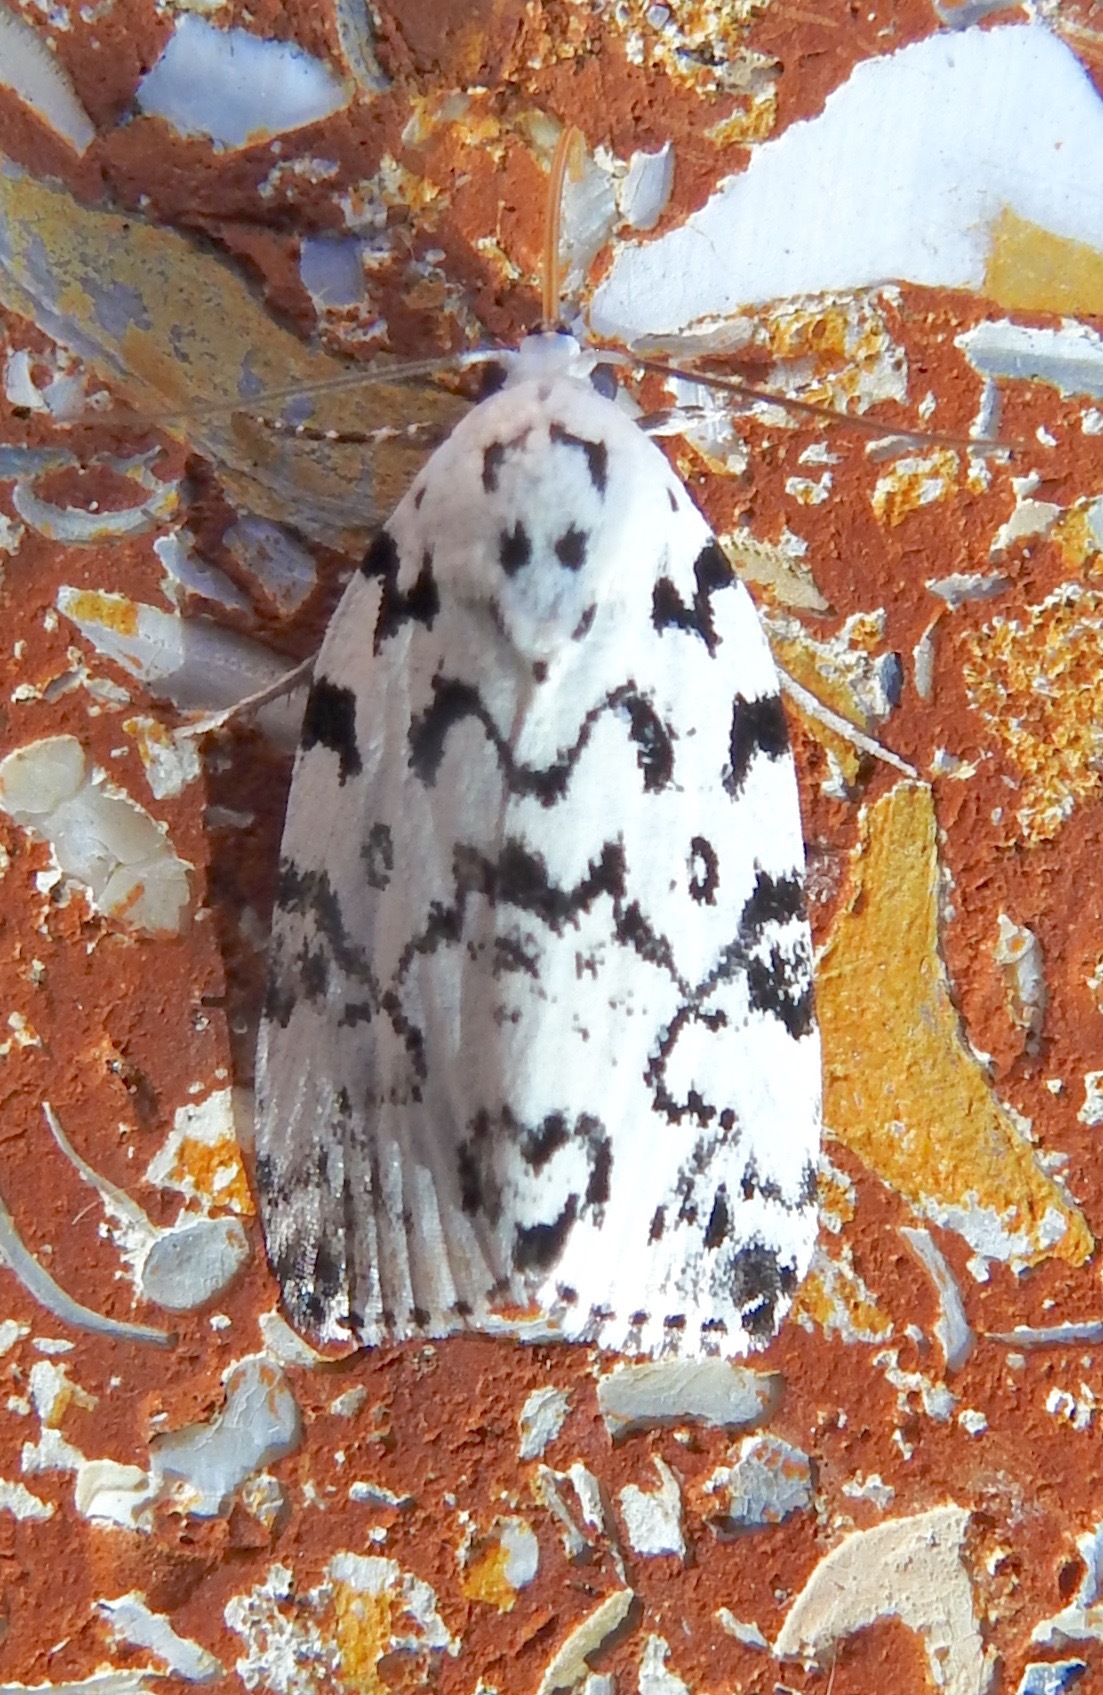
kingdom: Animalia
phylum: Arthropoda
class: Insecta
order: Lepidoptera
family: Noctuidae
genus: Polygrammate
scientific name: Polygrammate hebraeicum
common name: Hebrew moth
